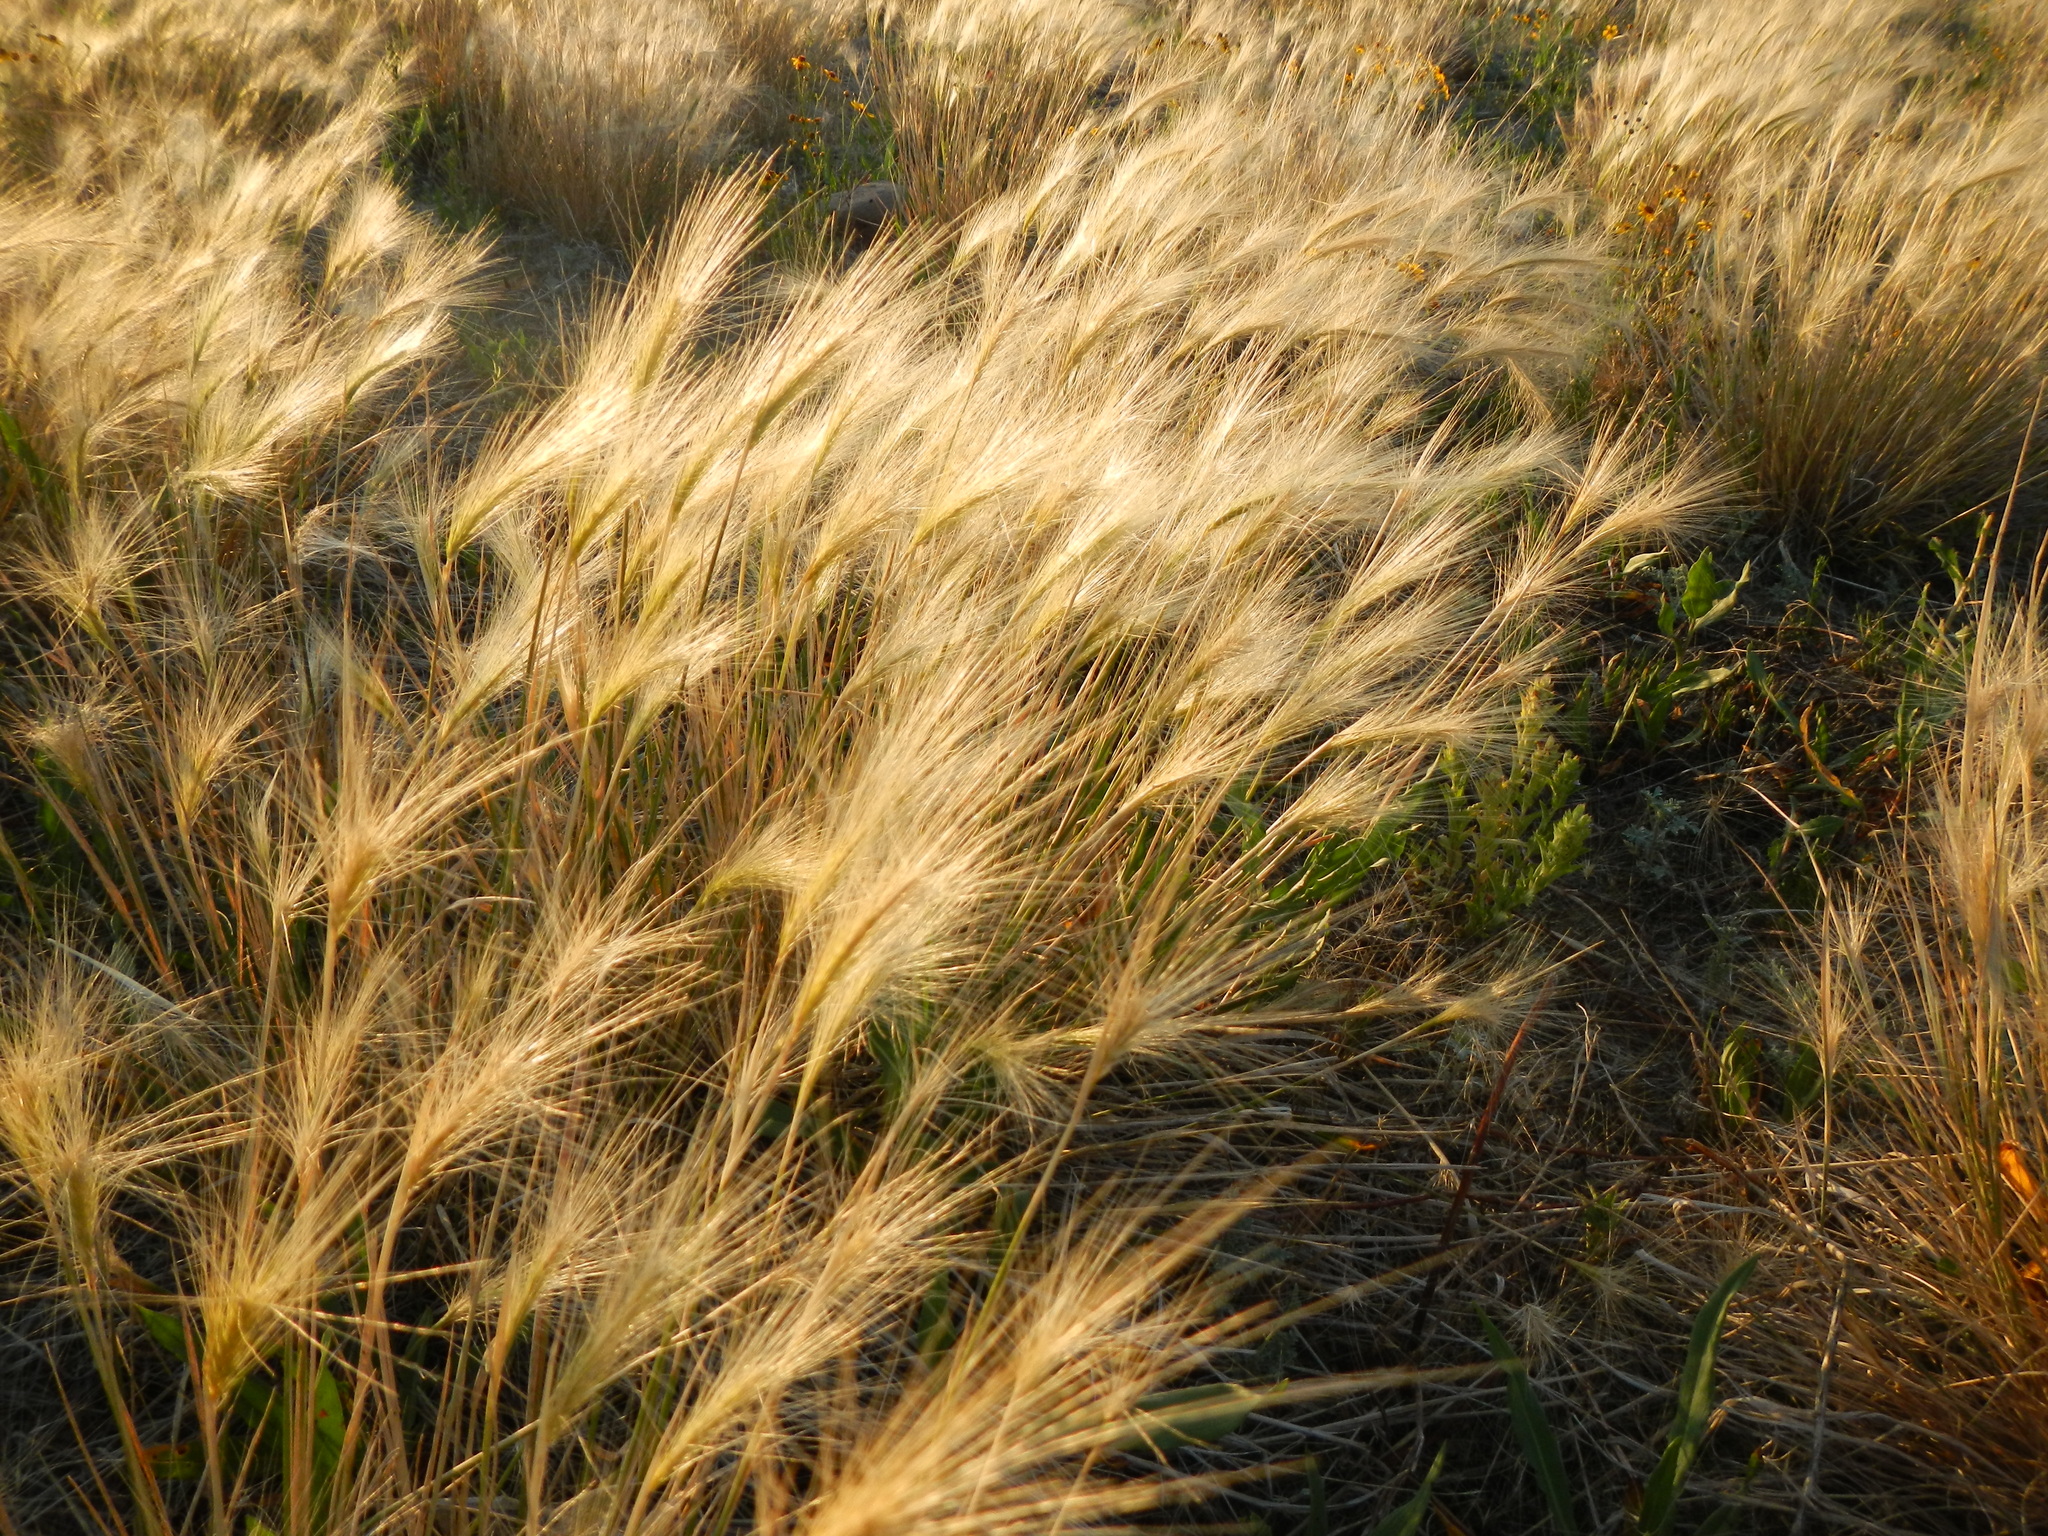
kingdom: Plantae
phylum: Tracheophyta
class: Liliopsida
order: Poales
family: Poaceae
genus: Hordeum
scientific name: Hordeum jubatum
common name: Foxtail barley
